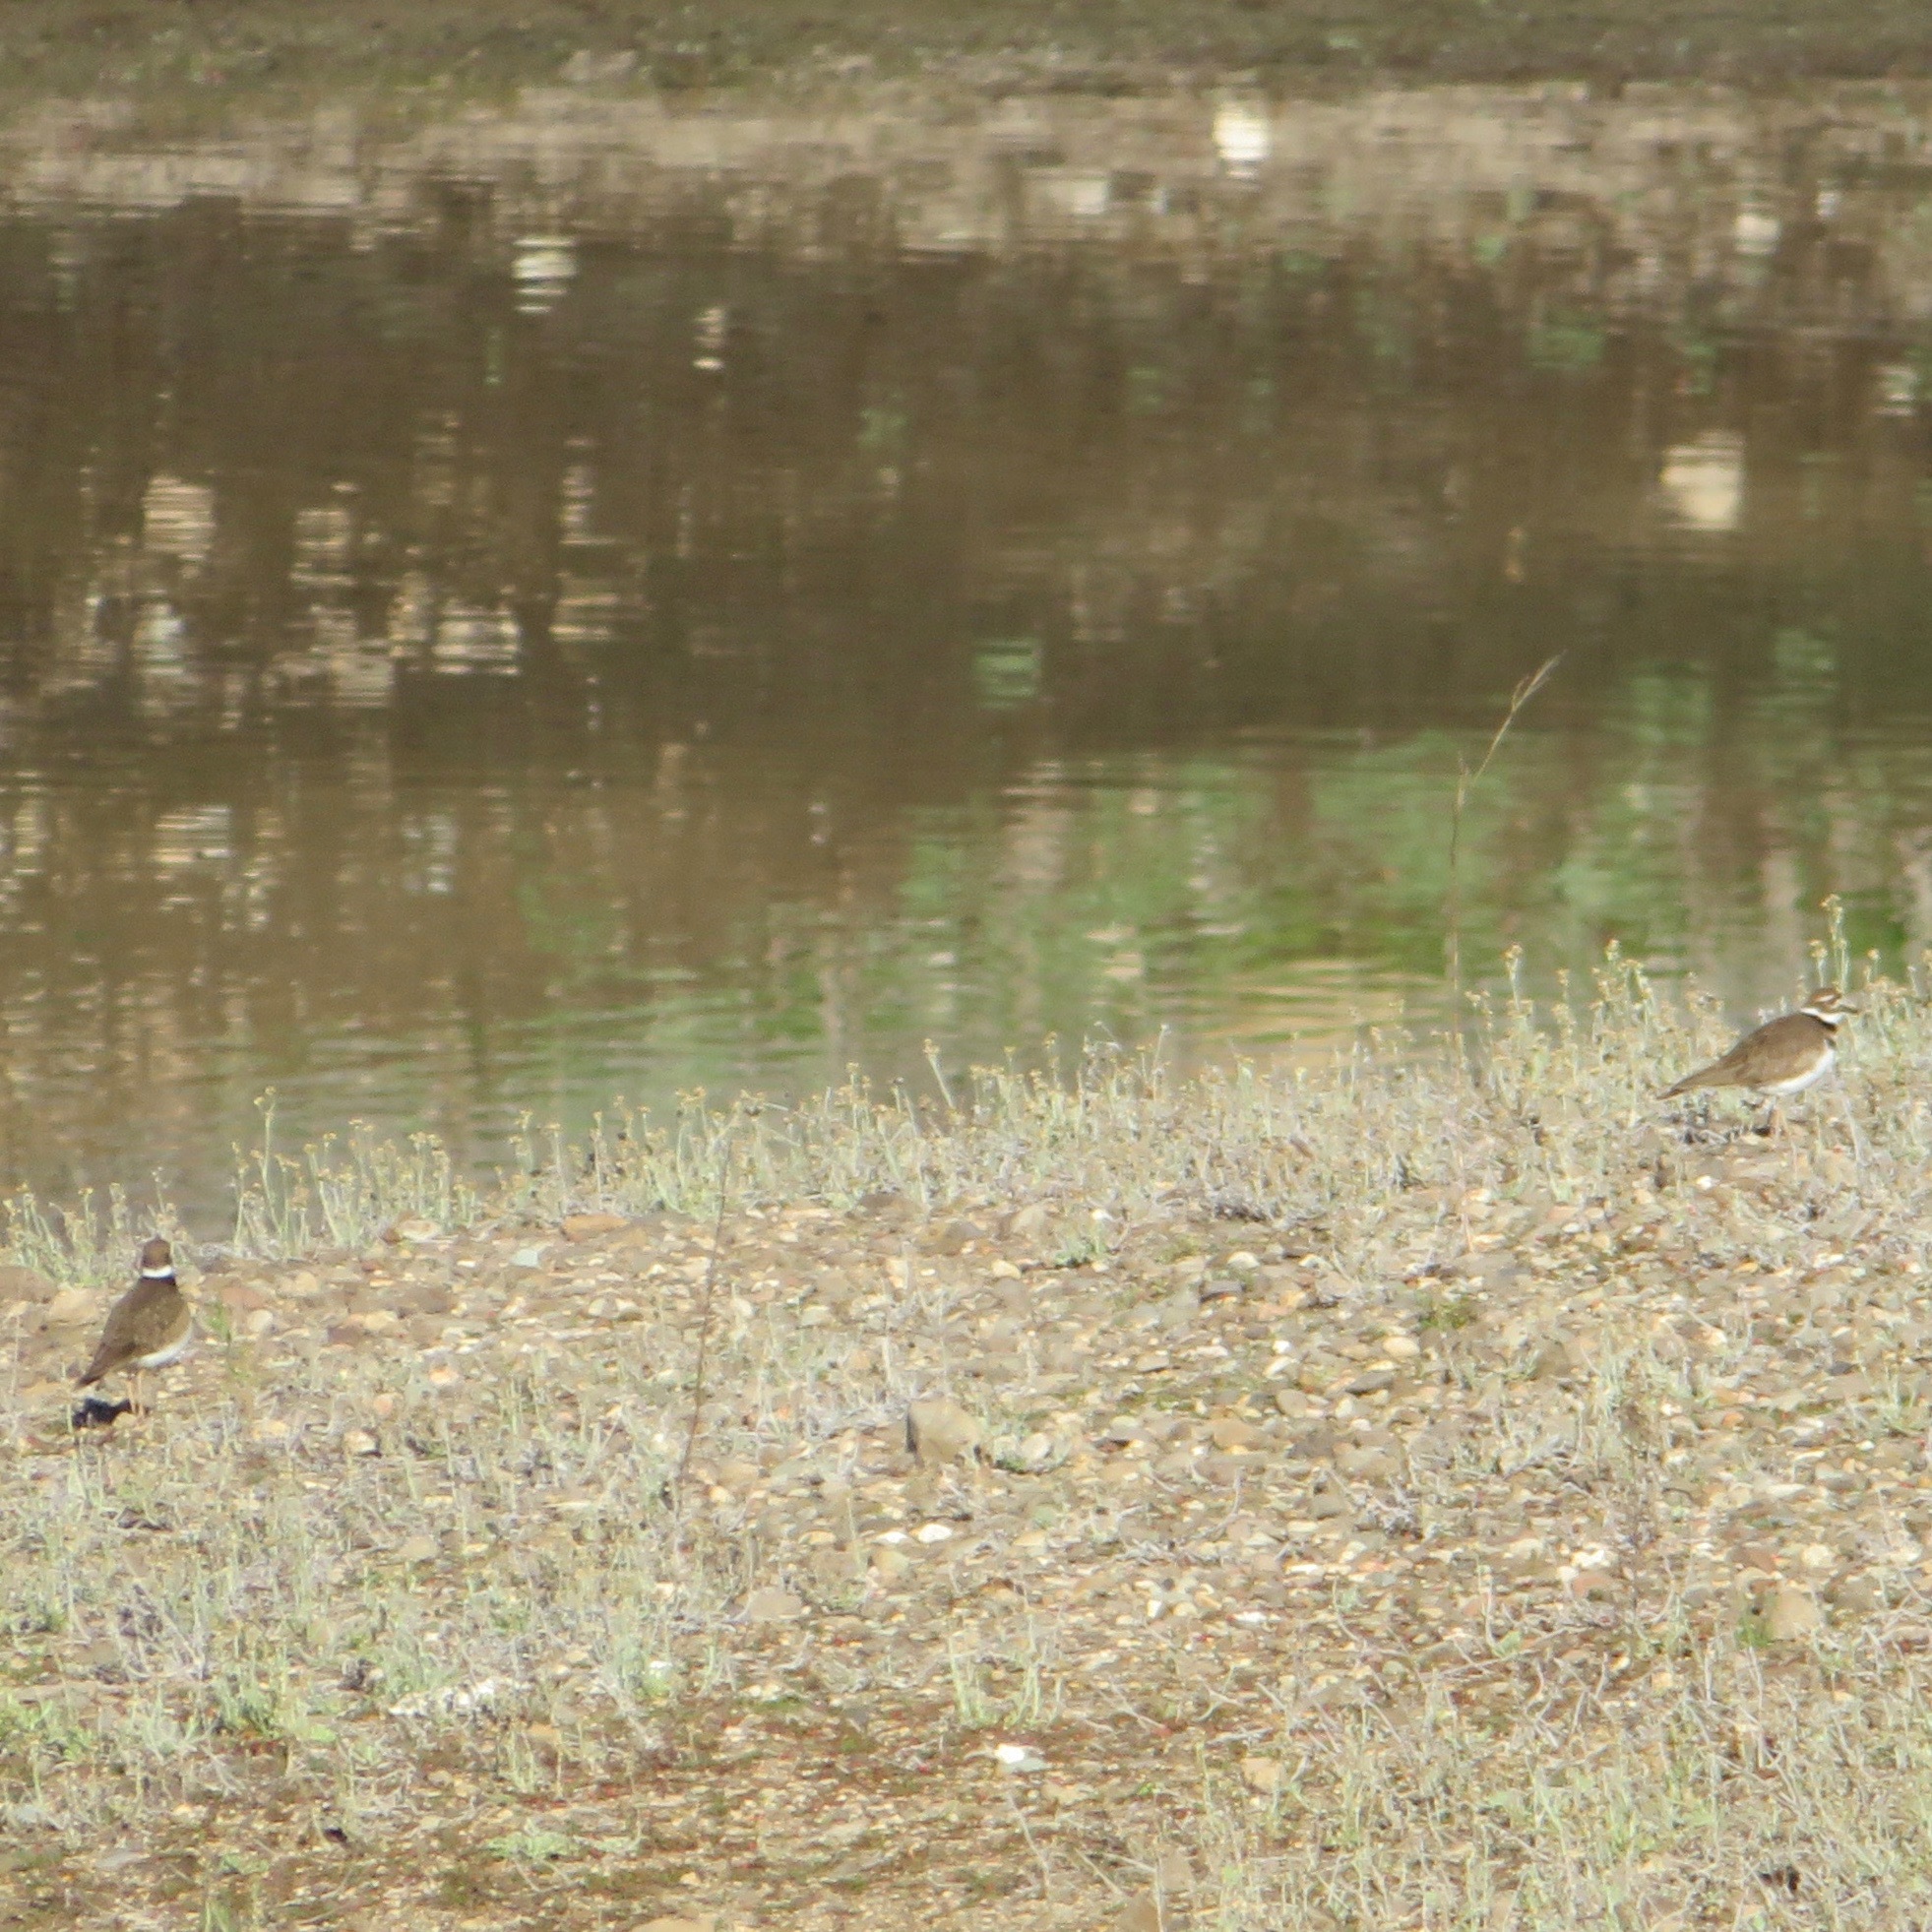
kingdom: Animalia
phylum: Chordata
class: Aves
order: Charadriiformes
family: Charadriidae
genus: Charadrius
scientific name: Charadrius vociferus
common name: Killdeer
